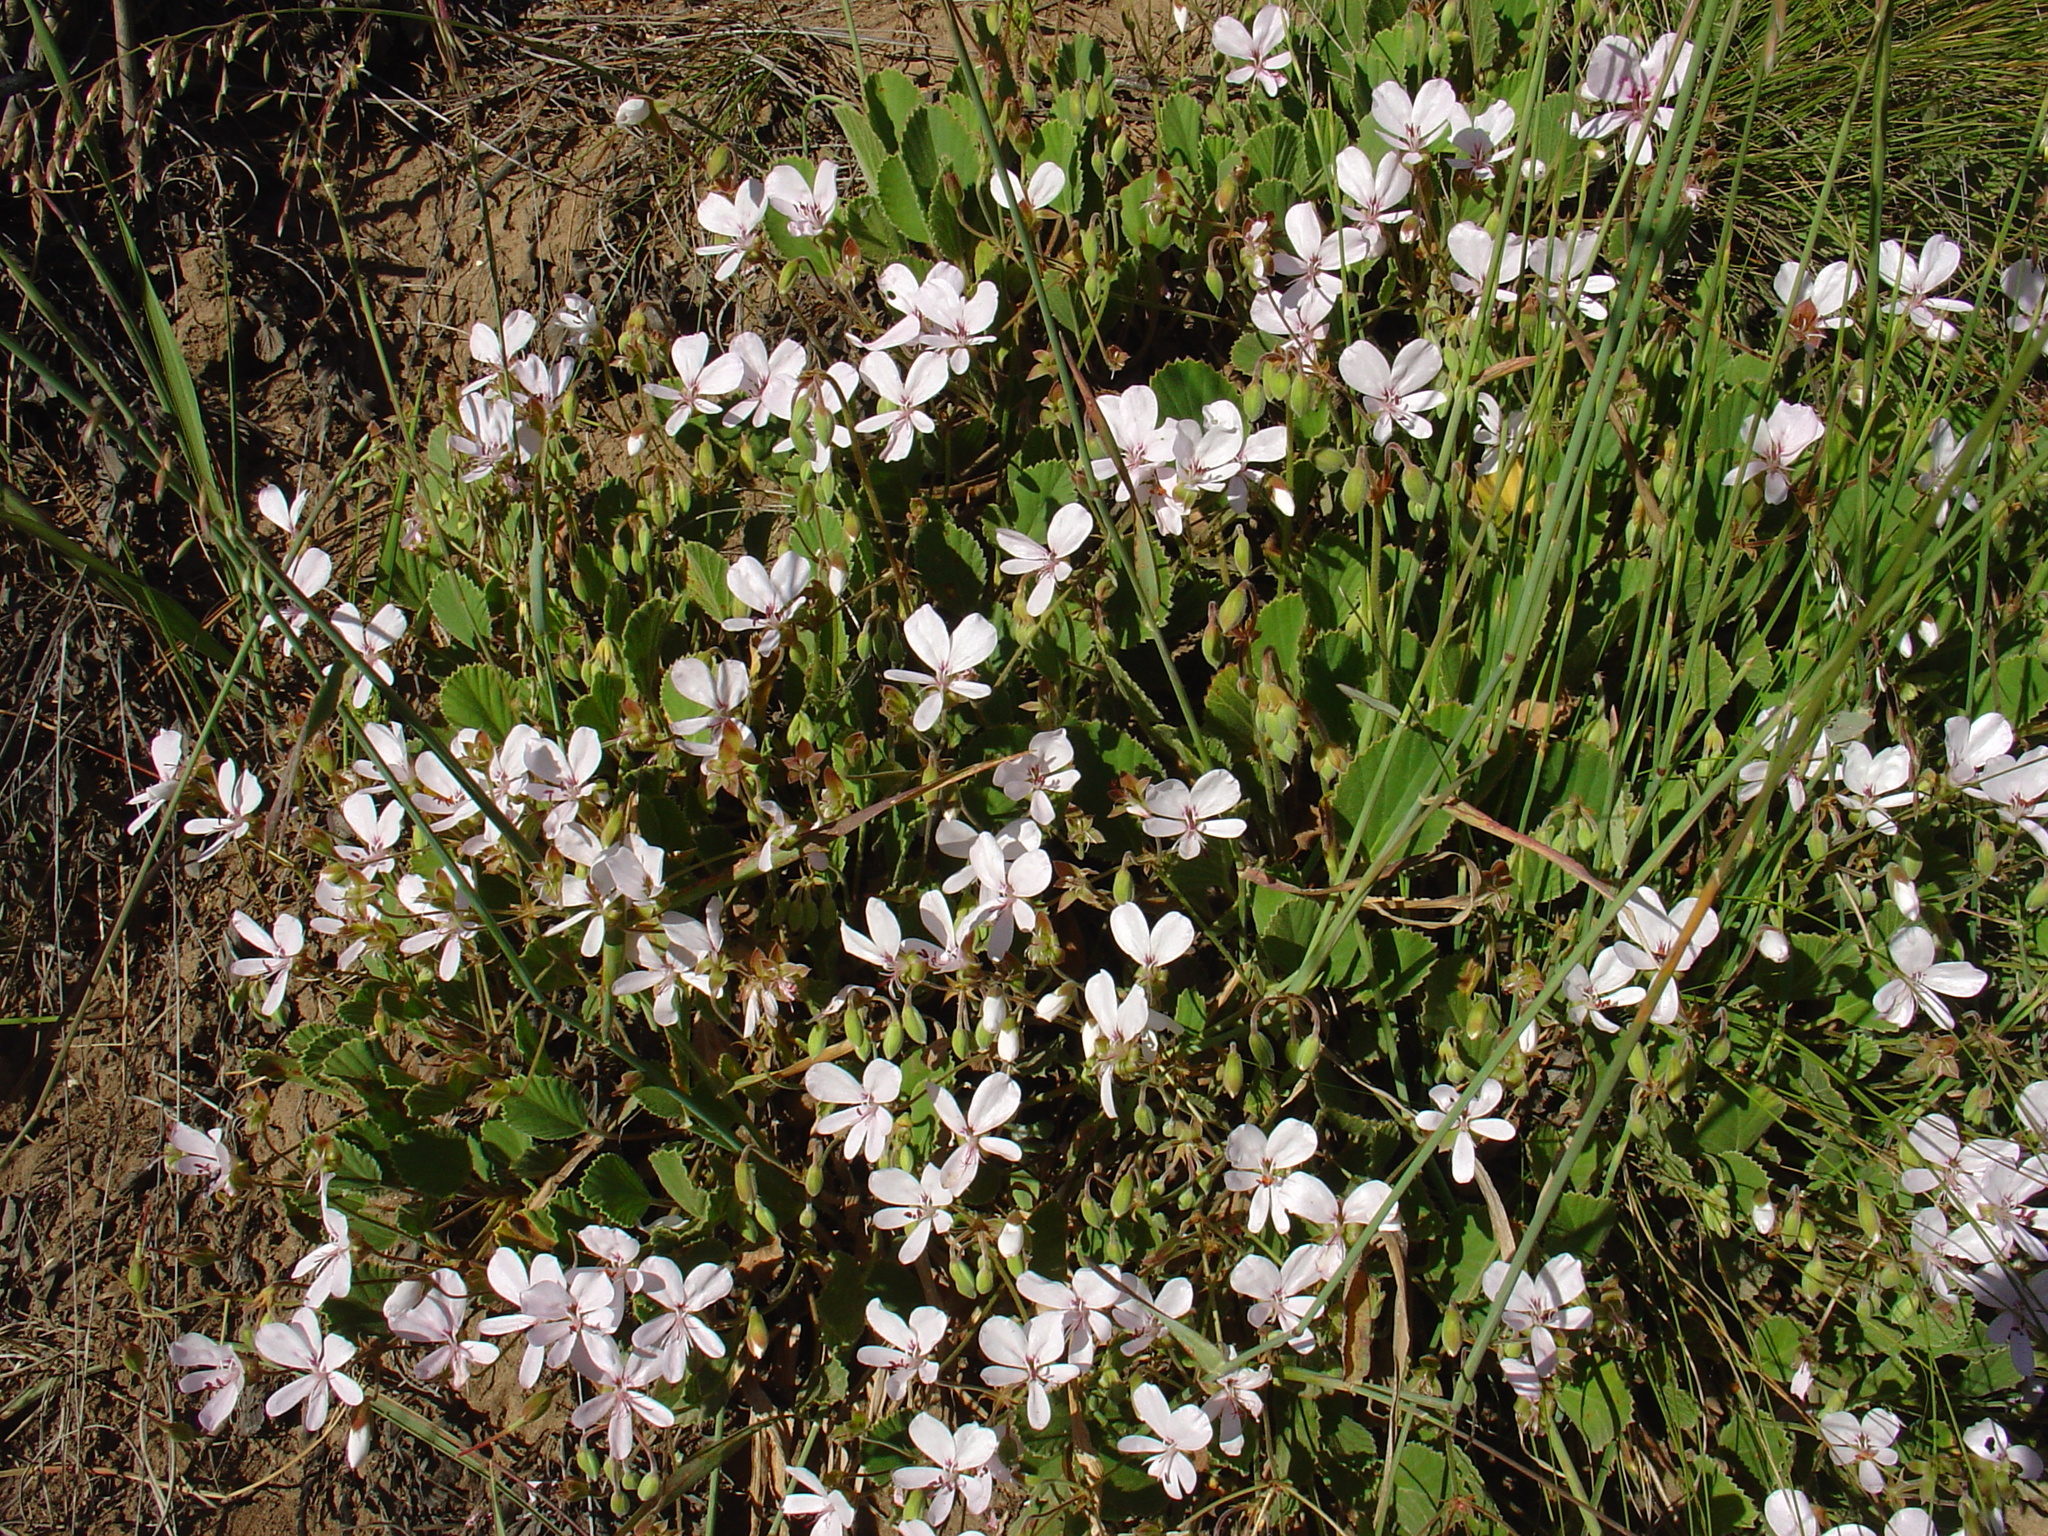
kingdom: Plantae
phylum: Tracheophyta
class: Magnoliopsida
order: Geraniales
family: Geraniaceae
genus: Pelargonium
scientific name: Pelargonium ovale
